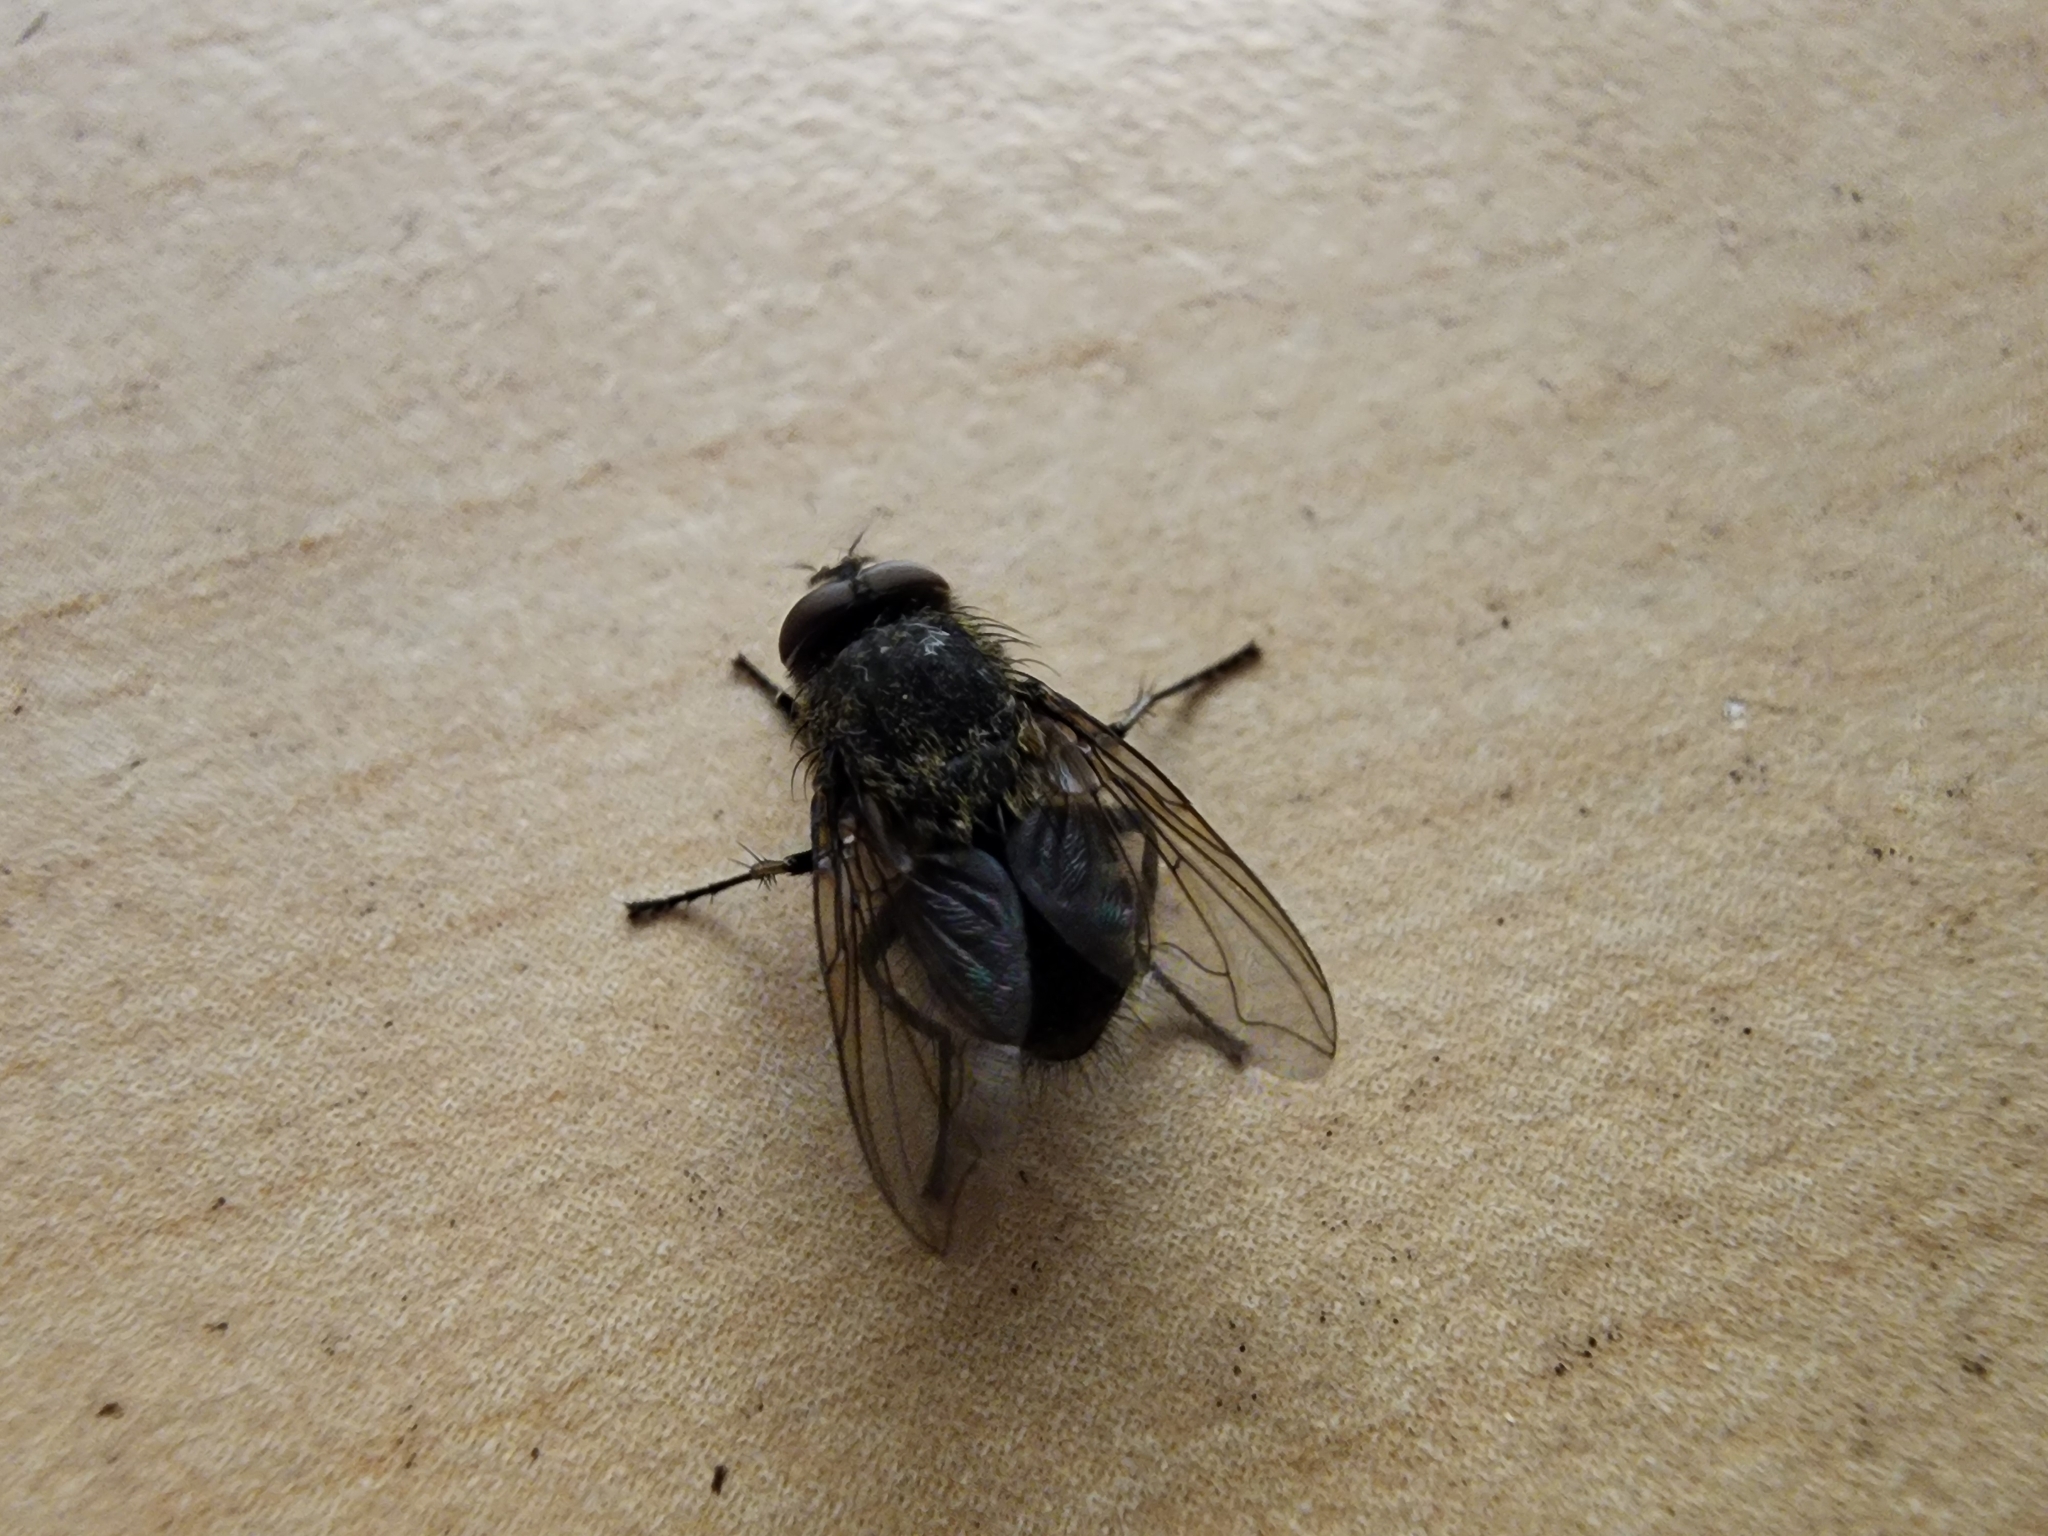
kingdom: Animalia
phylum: Arthropoda
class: Insecta
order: Diptera
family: Polleniidae
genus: Pollenia
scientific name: Pollenia
